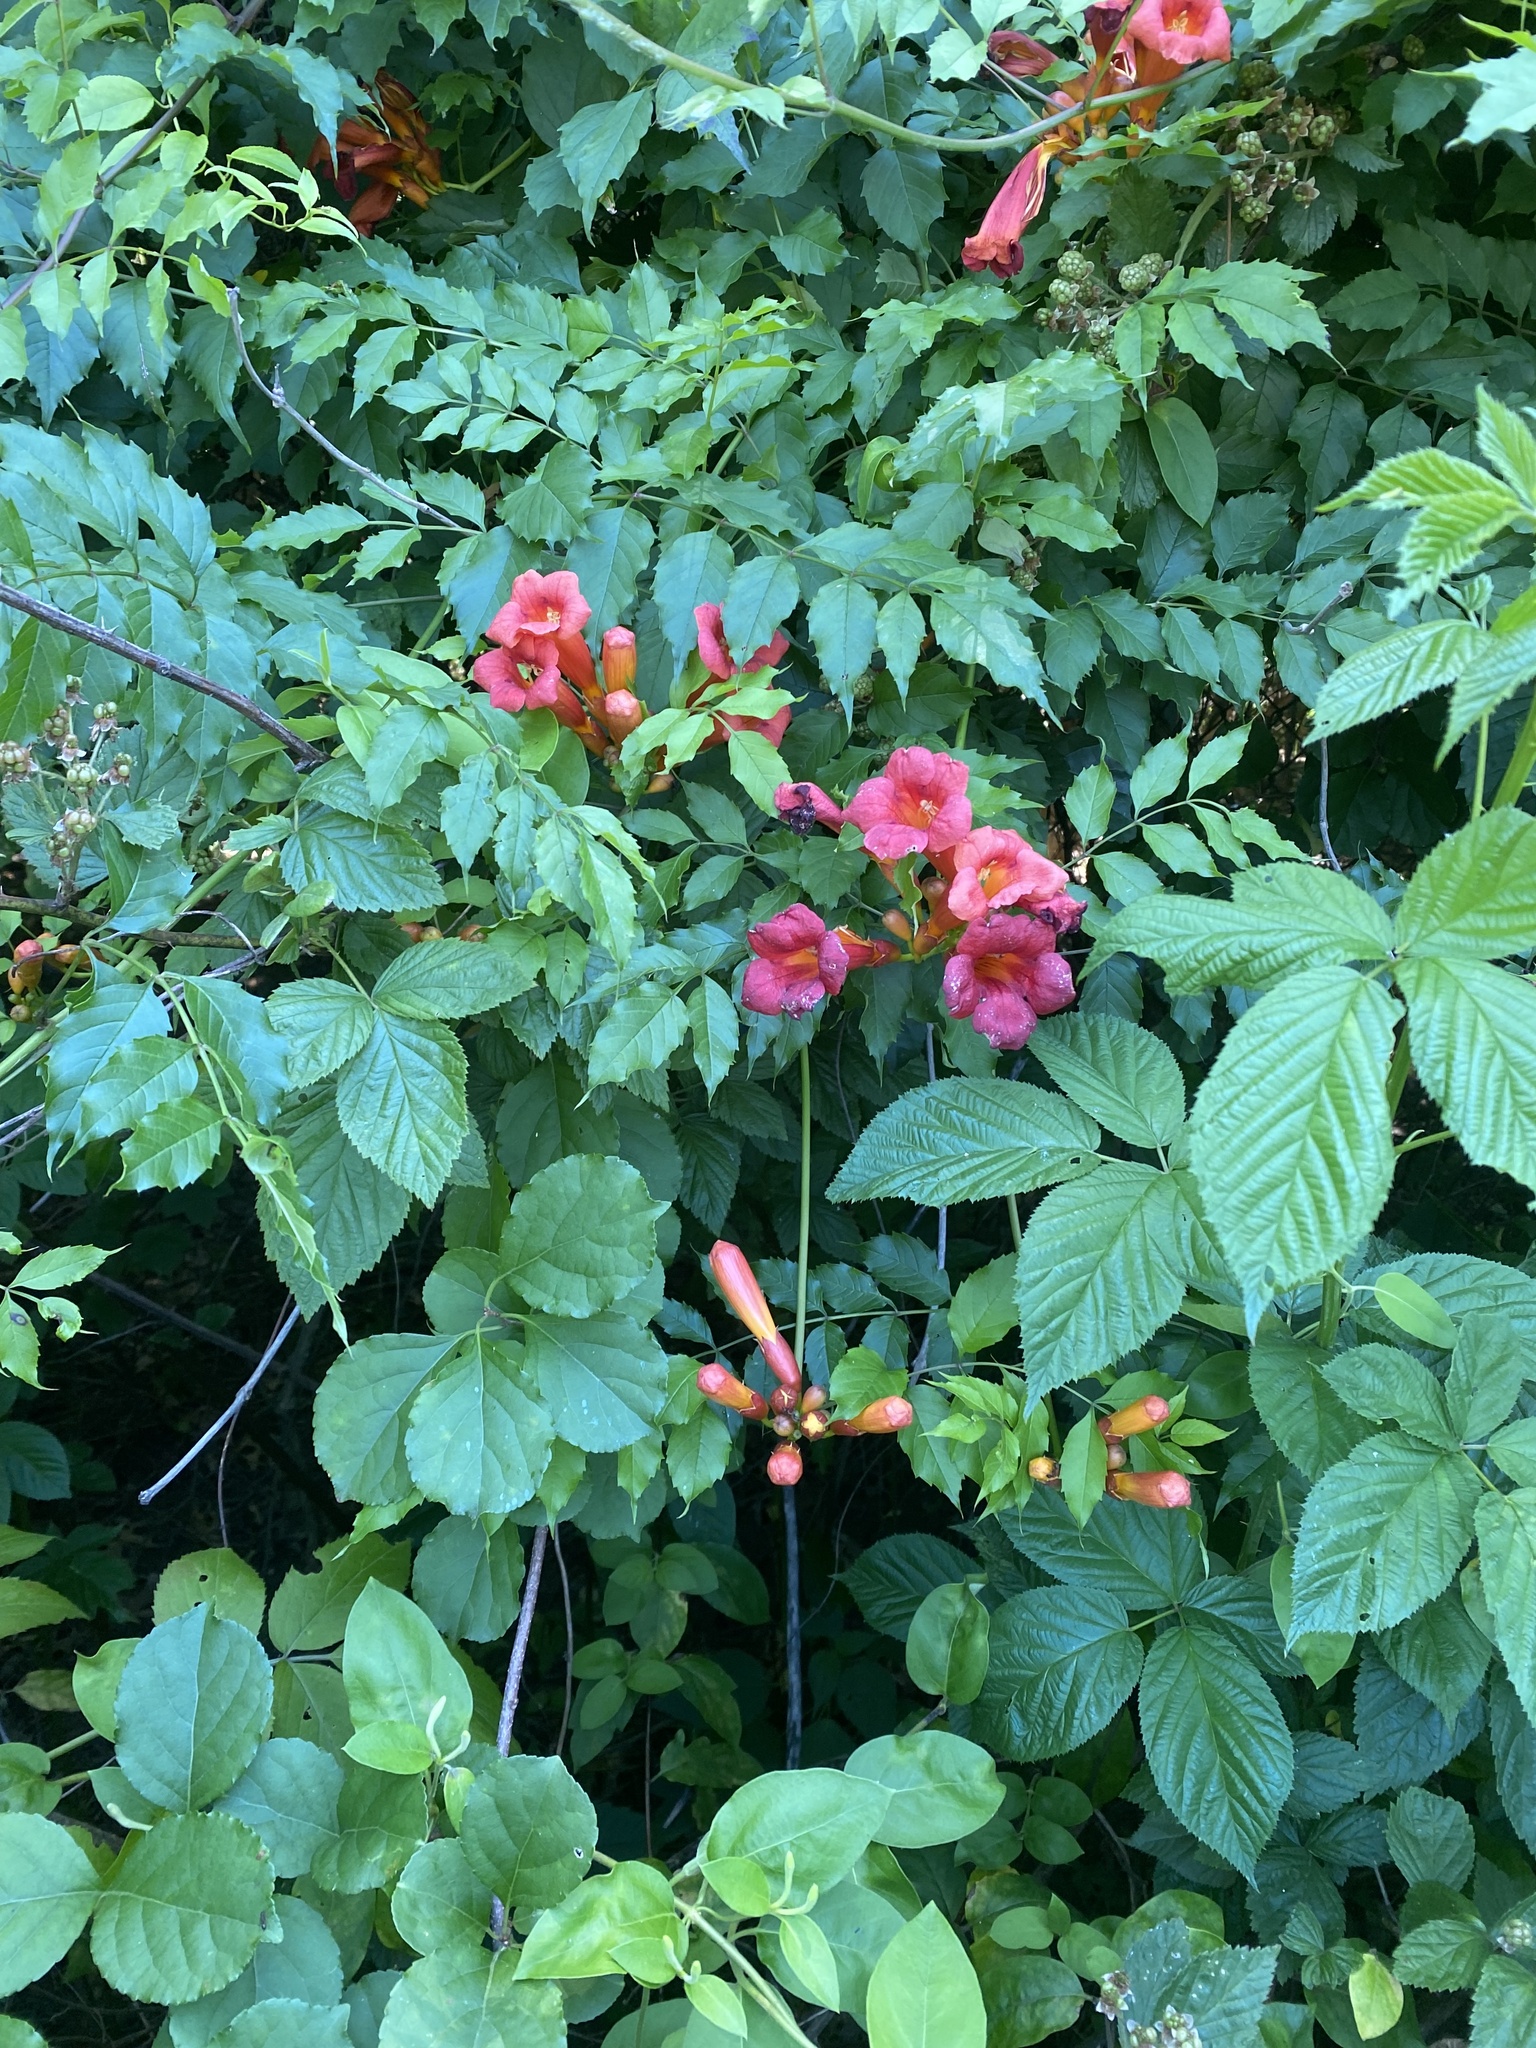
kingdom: Plantae
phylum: Tracheophyta
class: Magnoliopsida
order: Lamiales
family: Bignoniaceae
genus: Campsis
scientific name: Campsis radicans
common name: Trumpet-creeper
